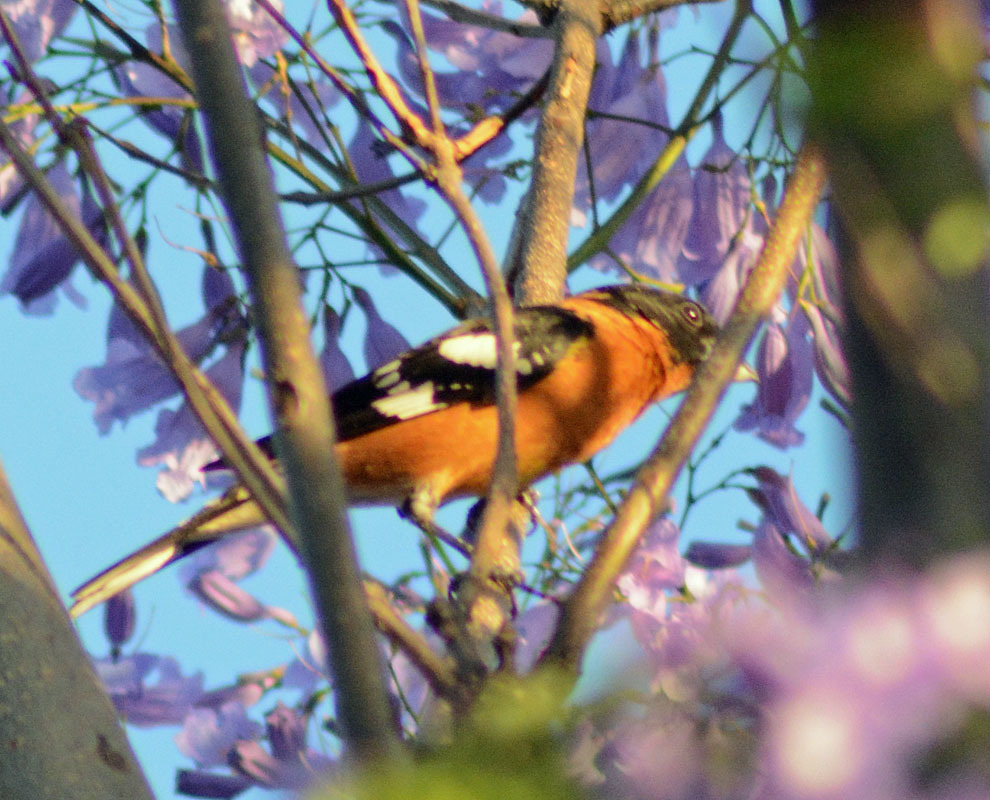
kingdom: Animalia
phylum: Chordata
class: Aves
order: Passeriformes
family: Cardinalidae
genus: Pheucticus
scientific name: Pheucticus melanocephalus
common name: Black-headed grosbeak
